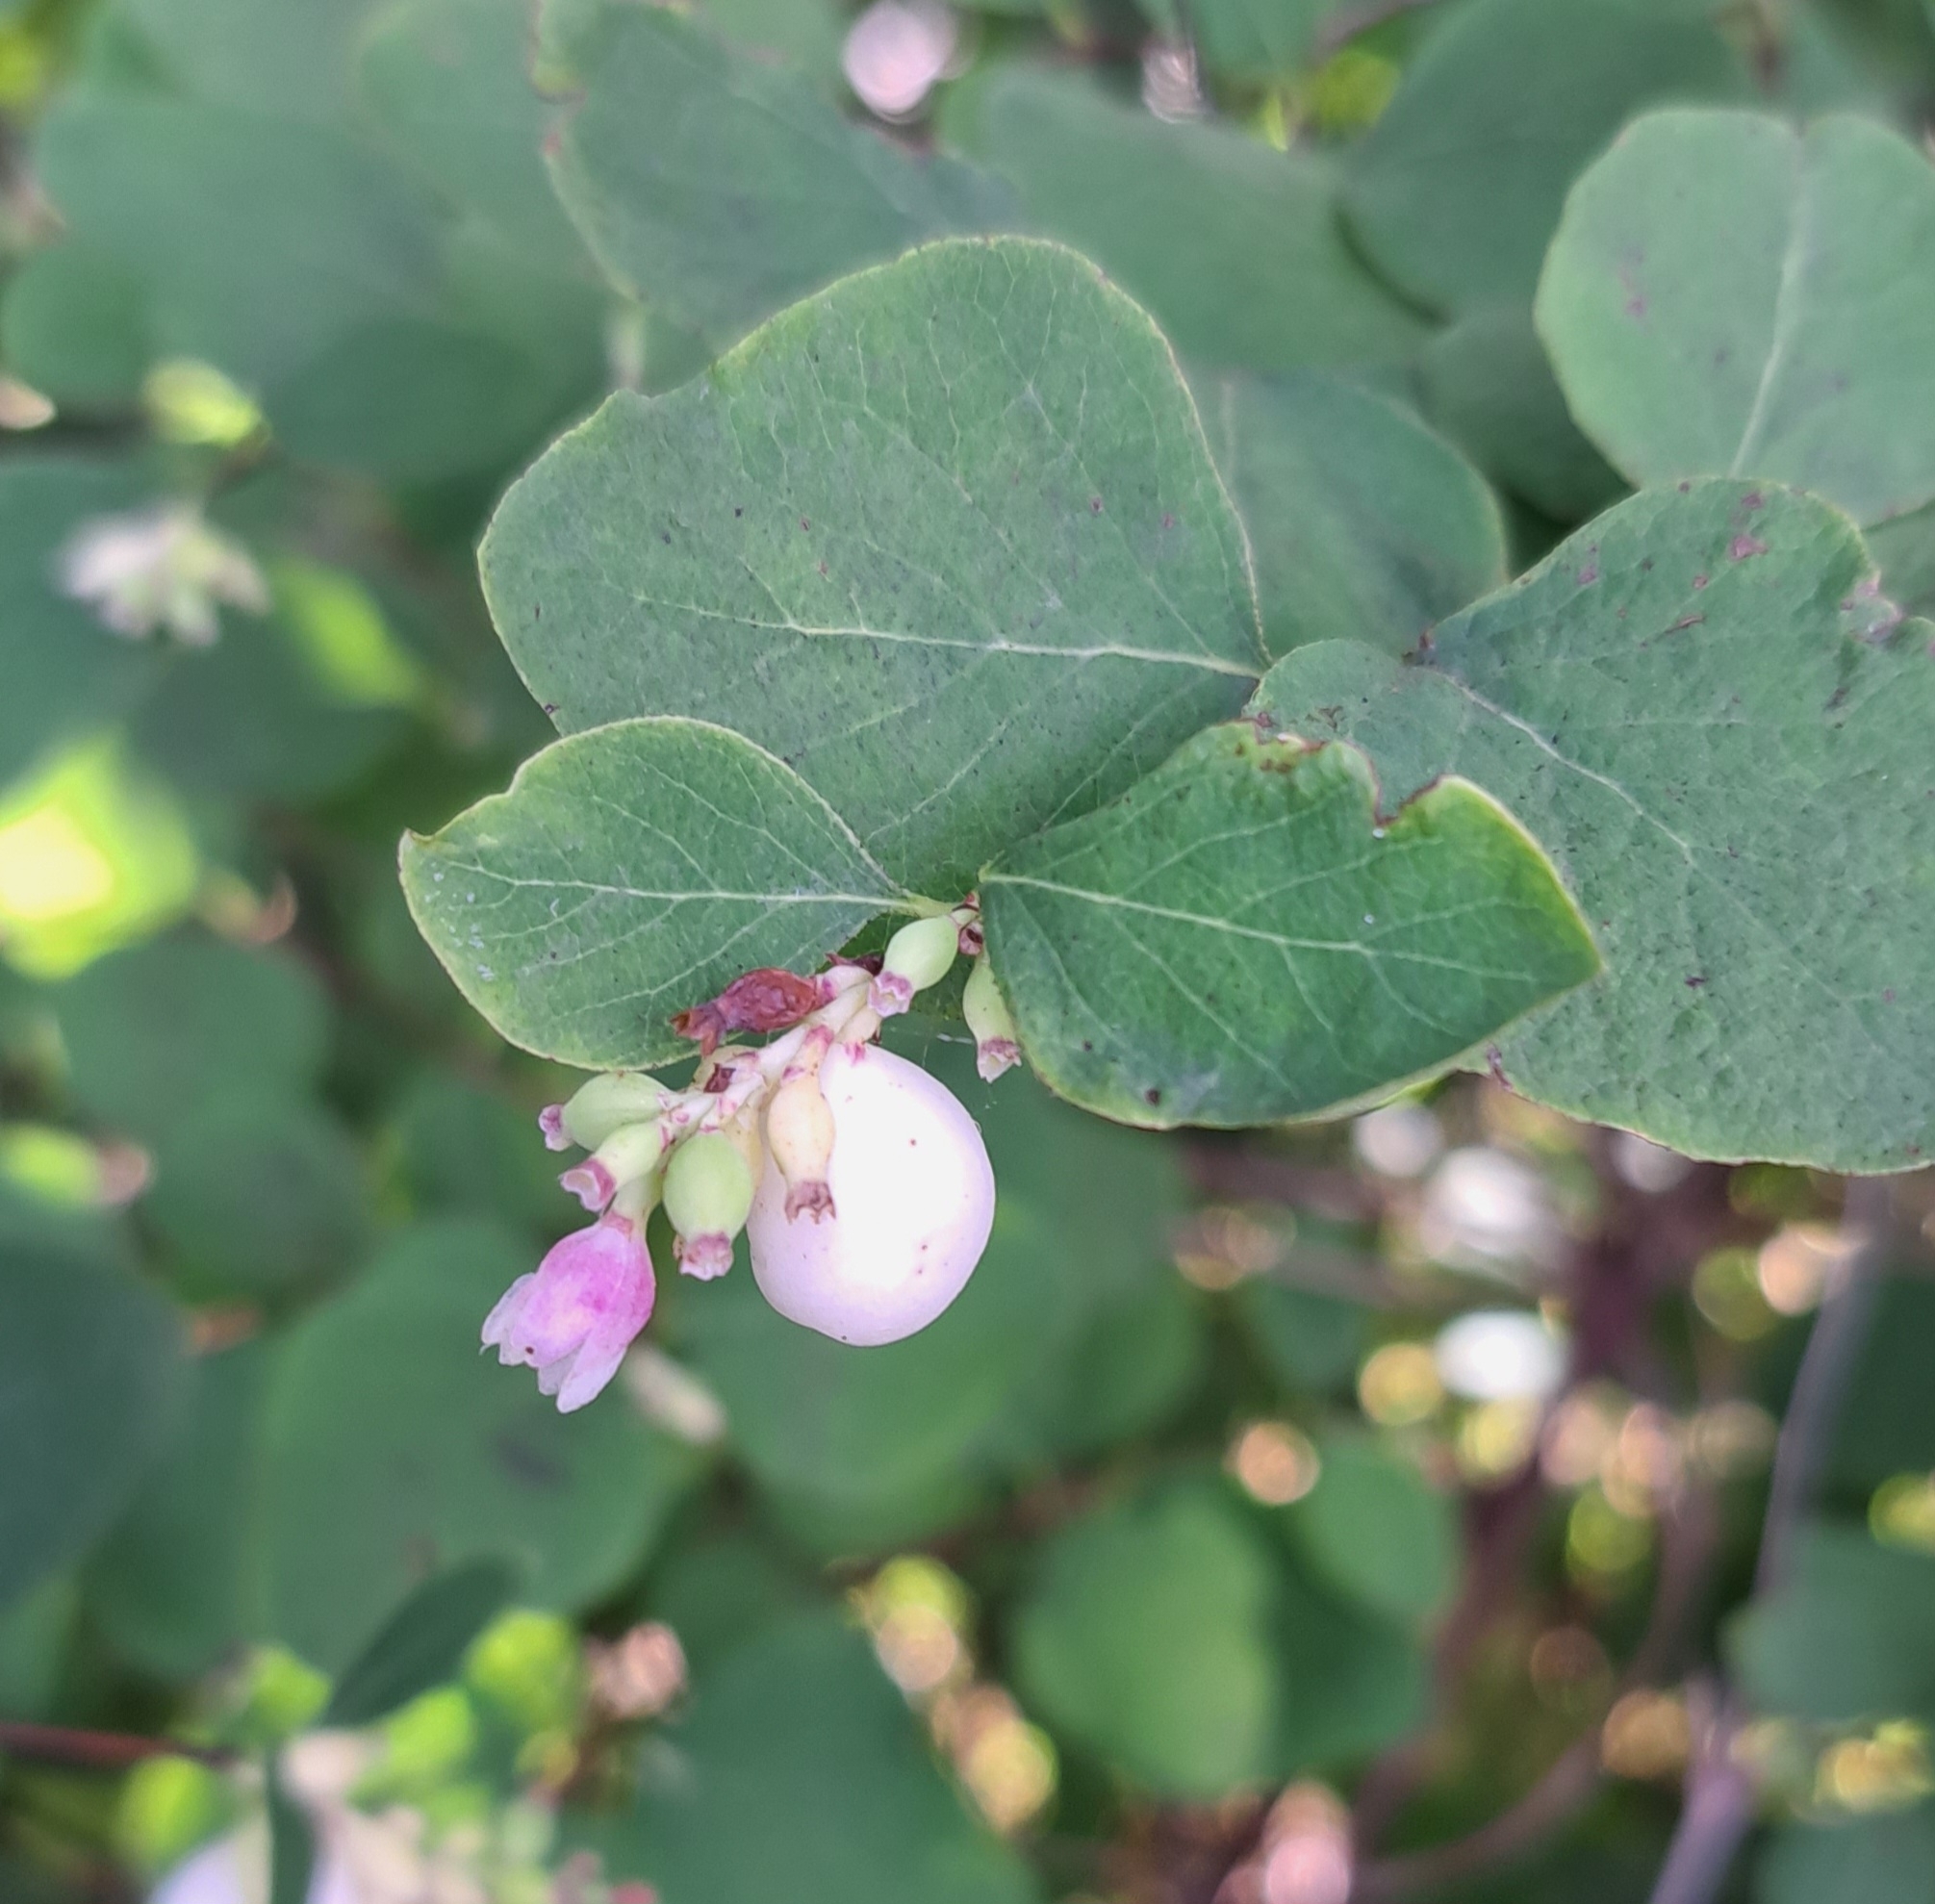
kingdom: Plantae
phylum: Tracheophyta
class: Magnoliopsida
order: Dipsacales
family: Caprifoliaceae
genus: Symphoricarpos
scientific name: Symphoricarpos albus
